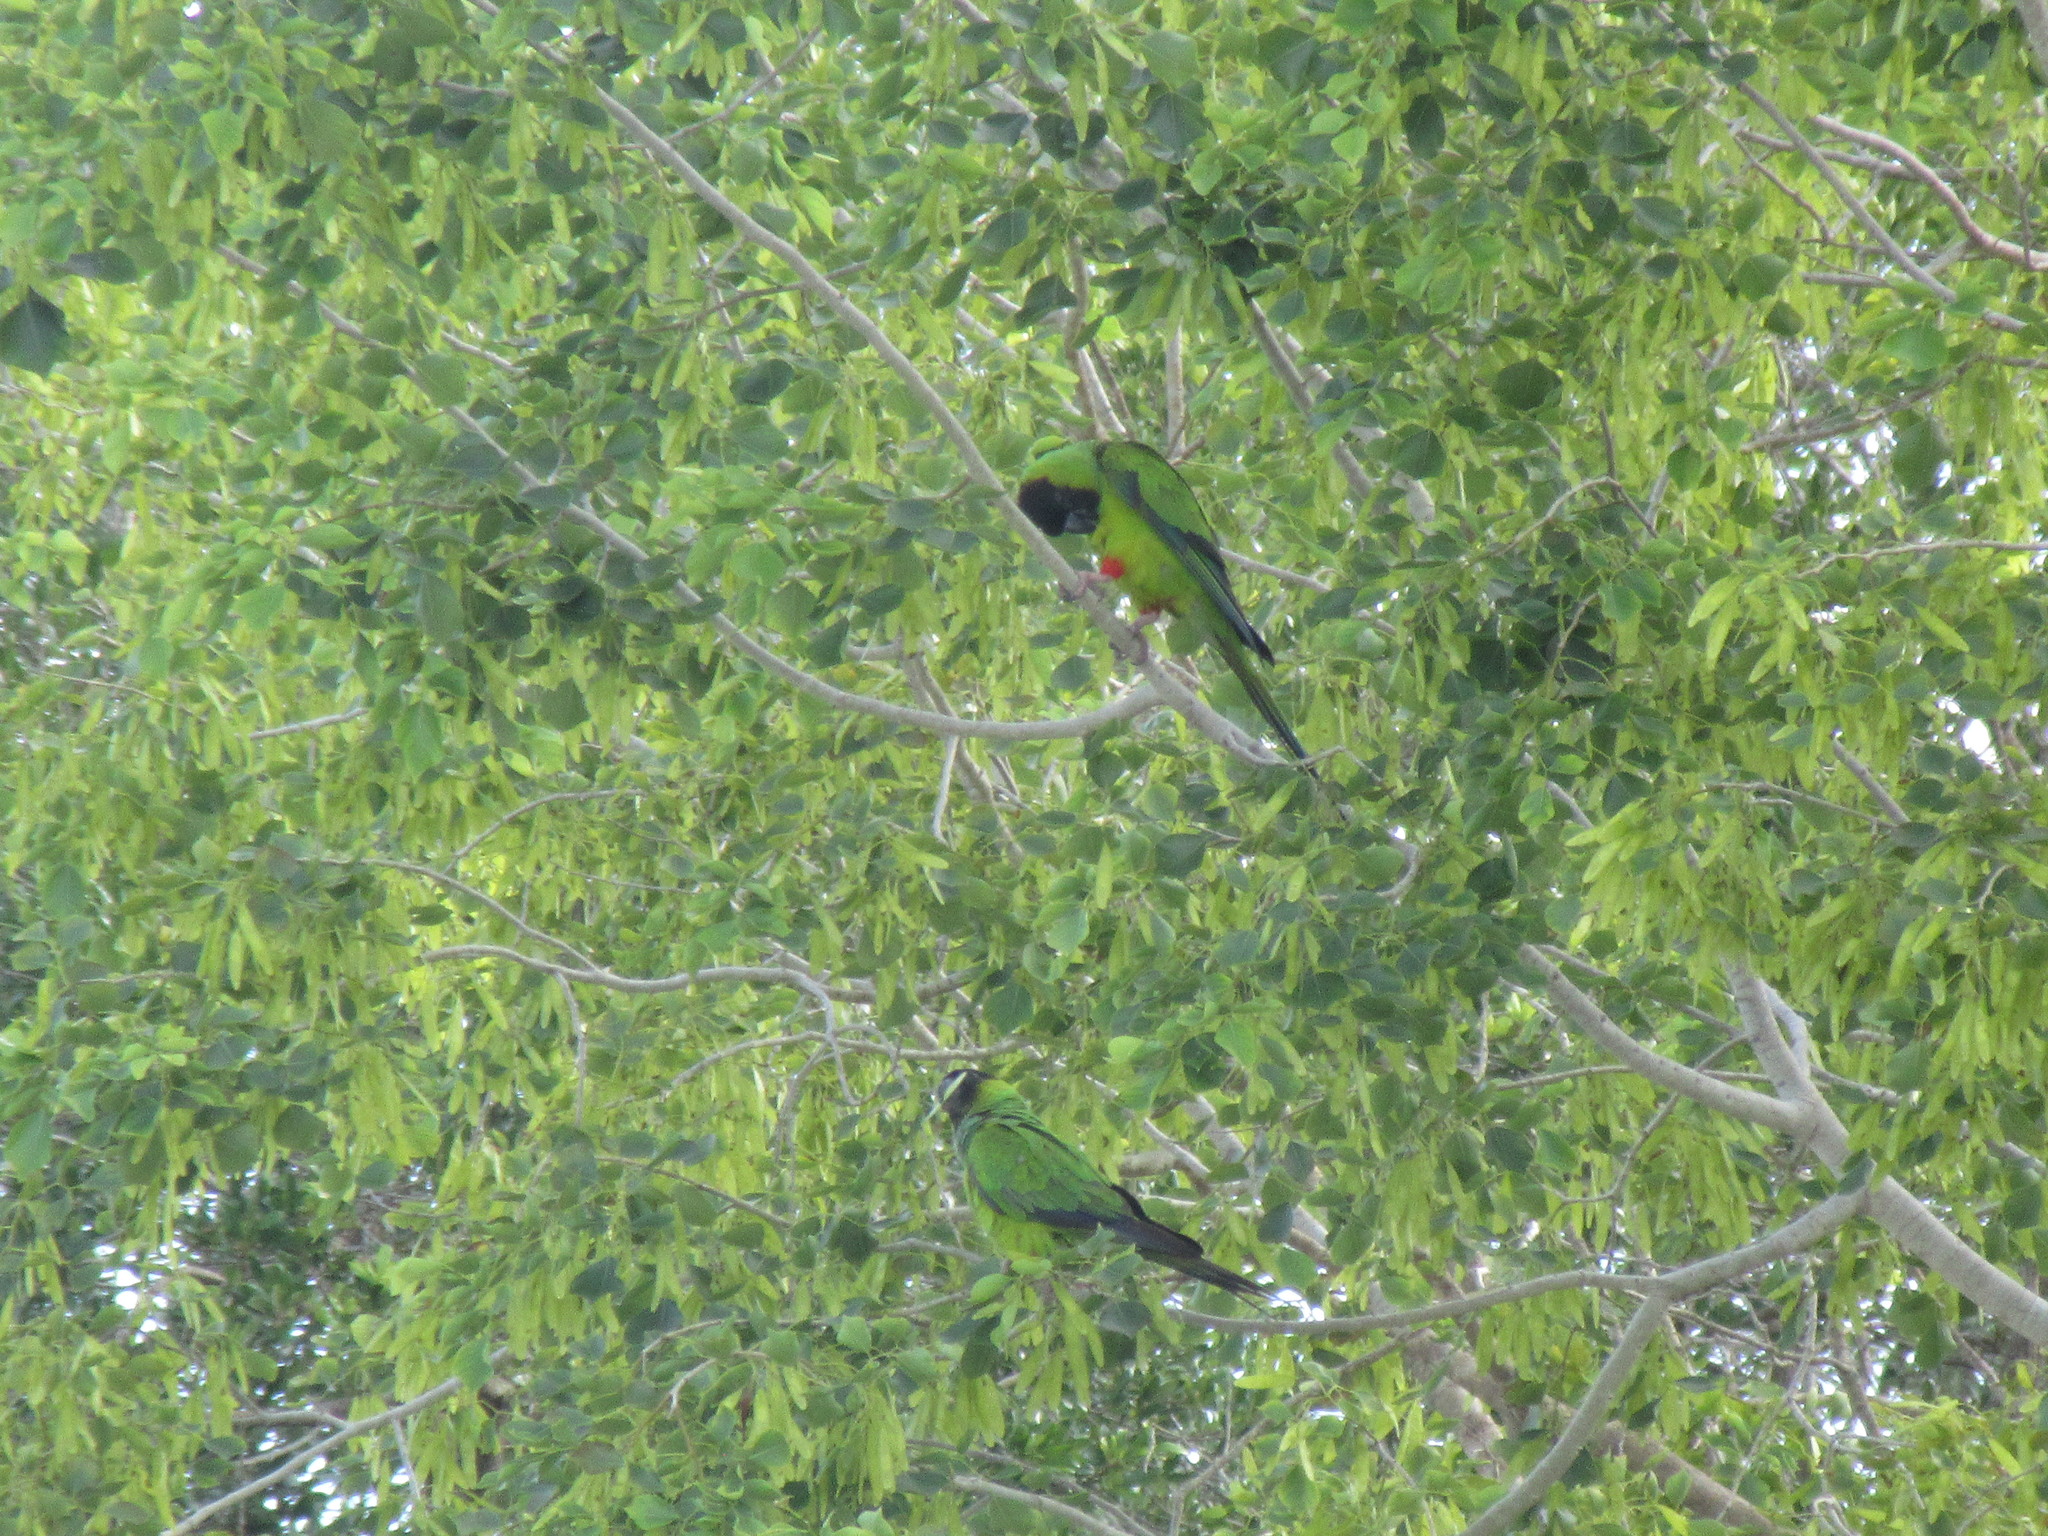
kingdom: Animalia
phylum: Chordata
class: Aves
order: Psittaciformes
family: Psittacidae
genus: Nandayus
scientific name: Nandayus nenday
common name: Nanday parakeet
